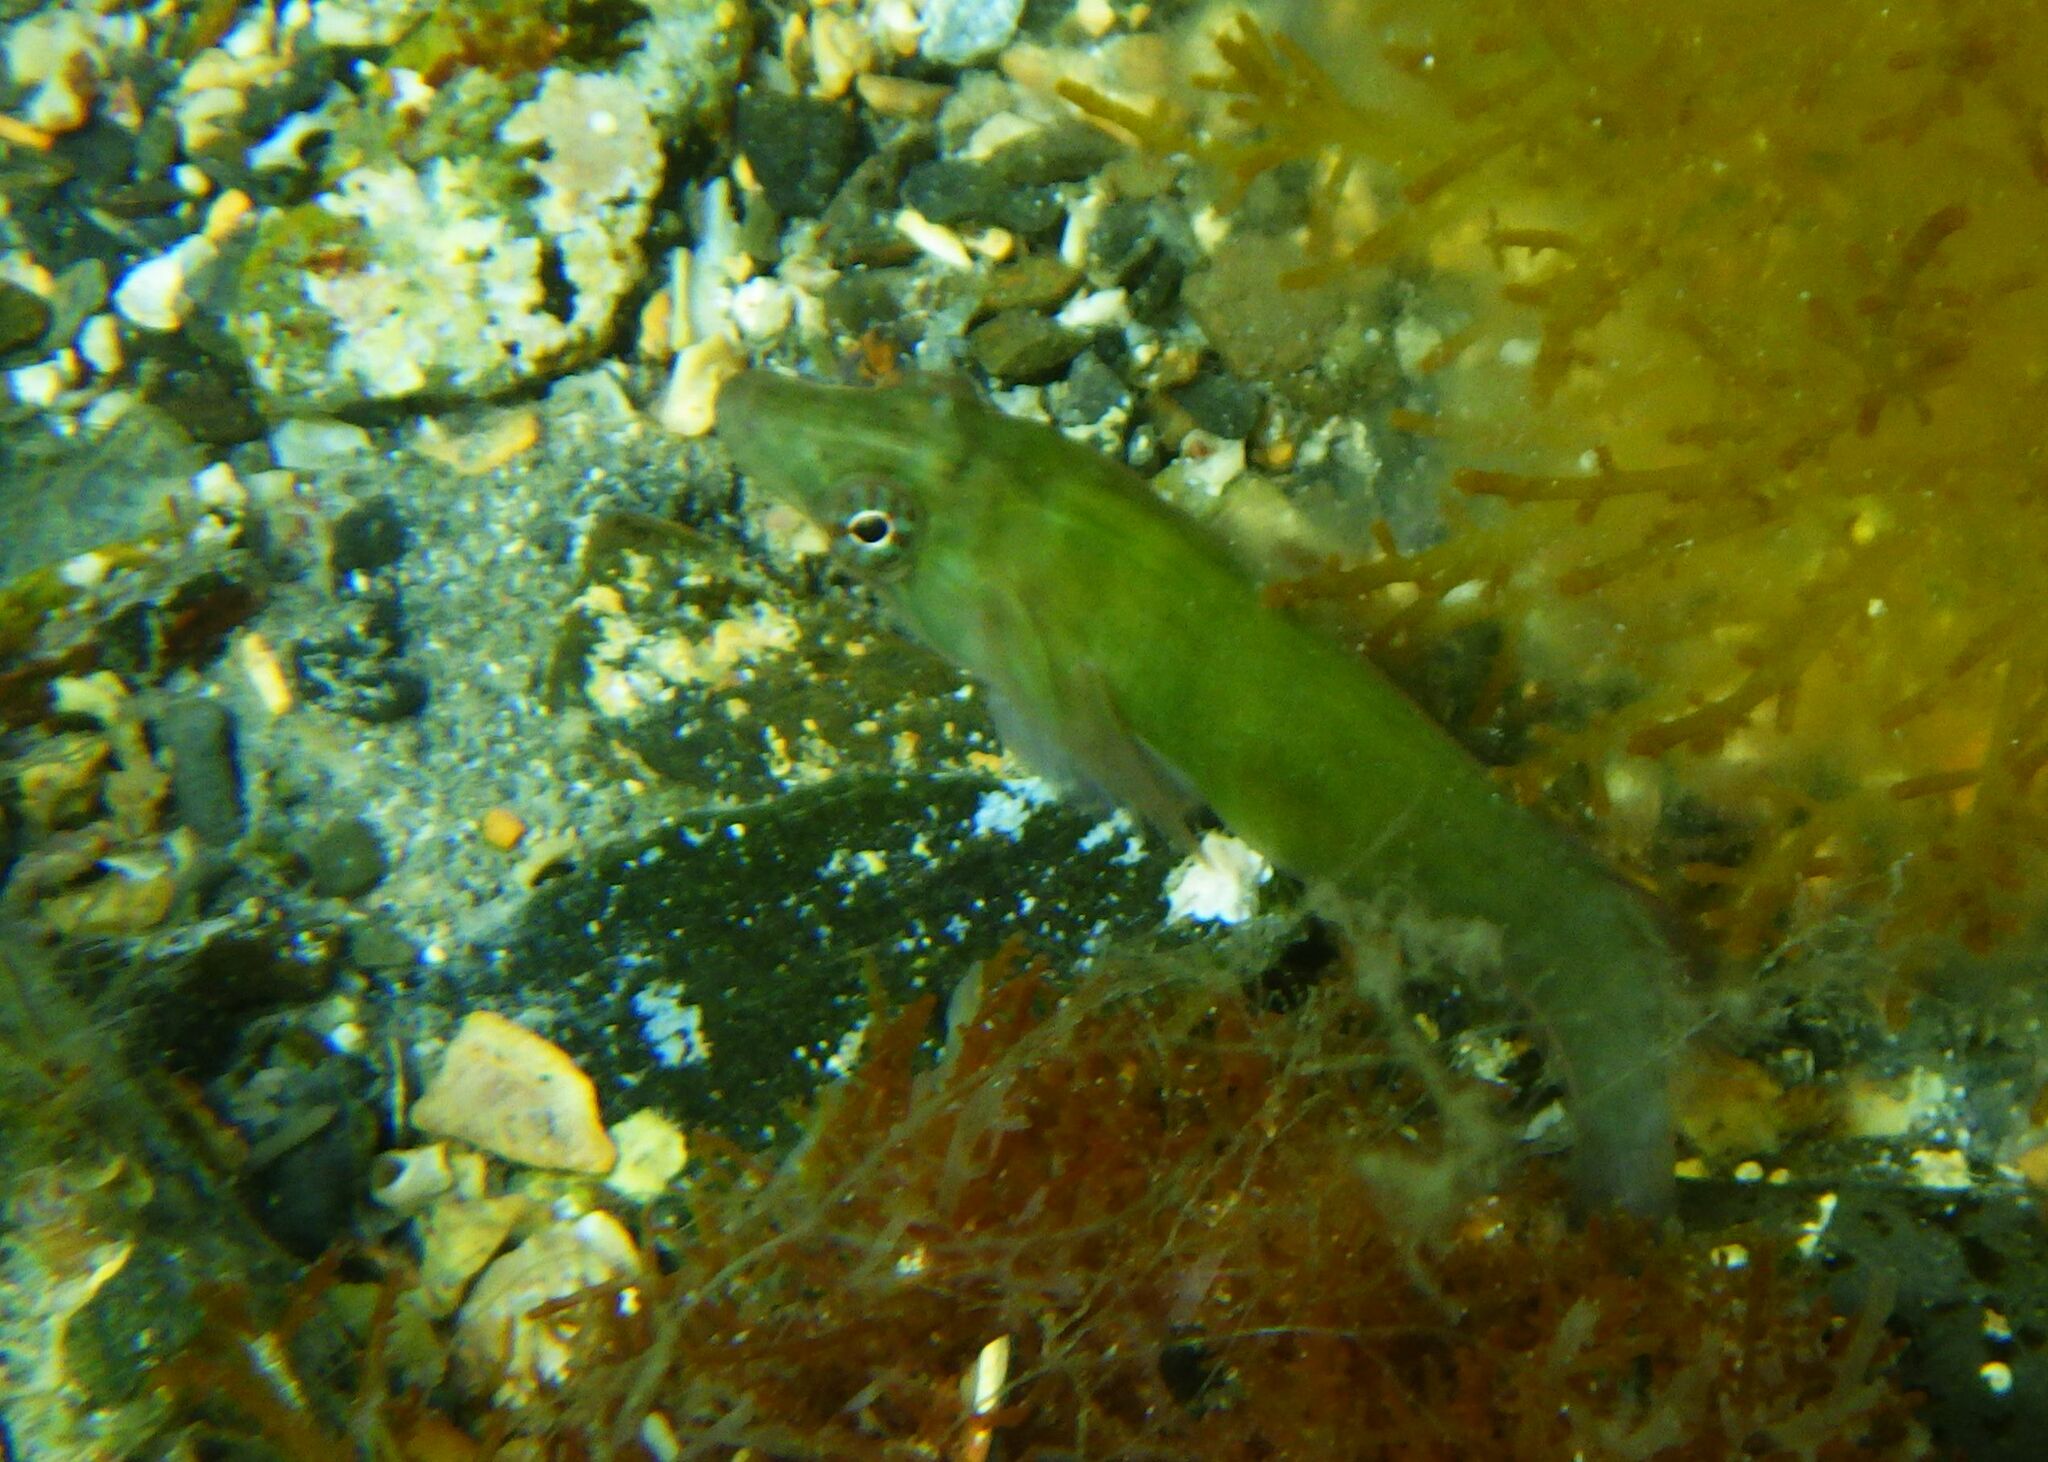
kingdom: Animalia
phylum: Chordata
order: Gobiesociformes
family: Gobiesocidae
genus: Lepadogaster
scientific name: Lepadogaster candolii
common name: Connemarra clingfish
